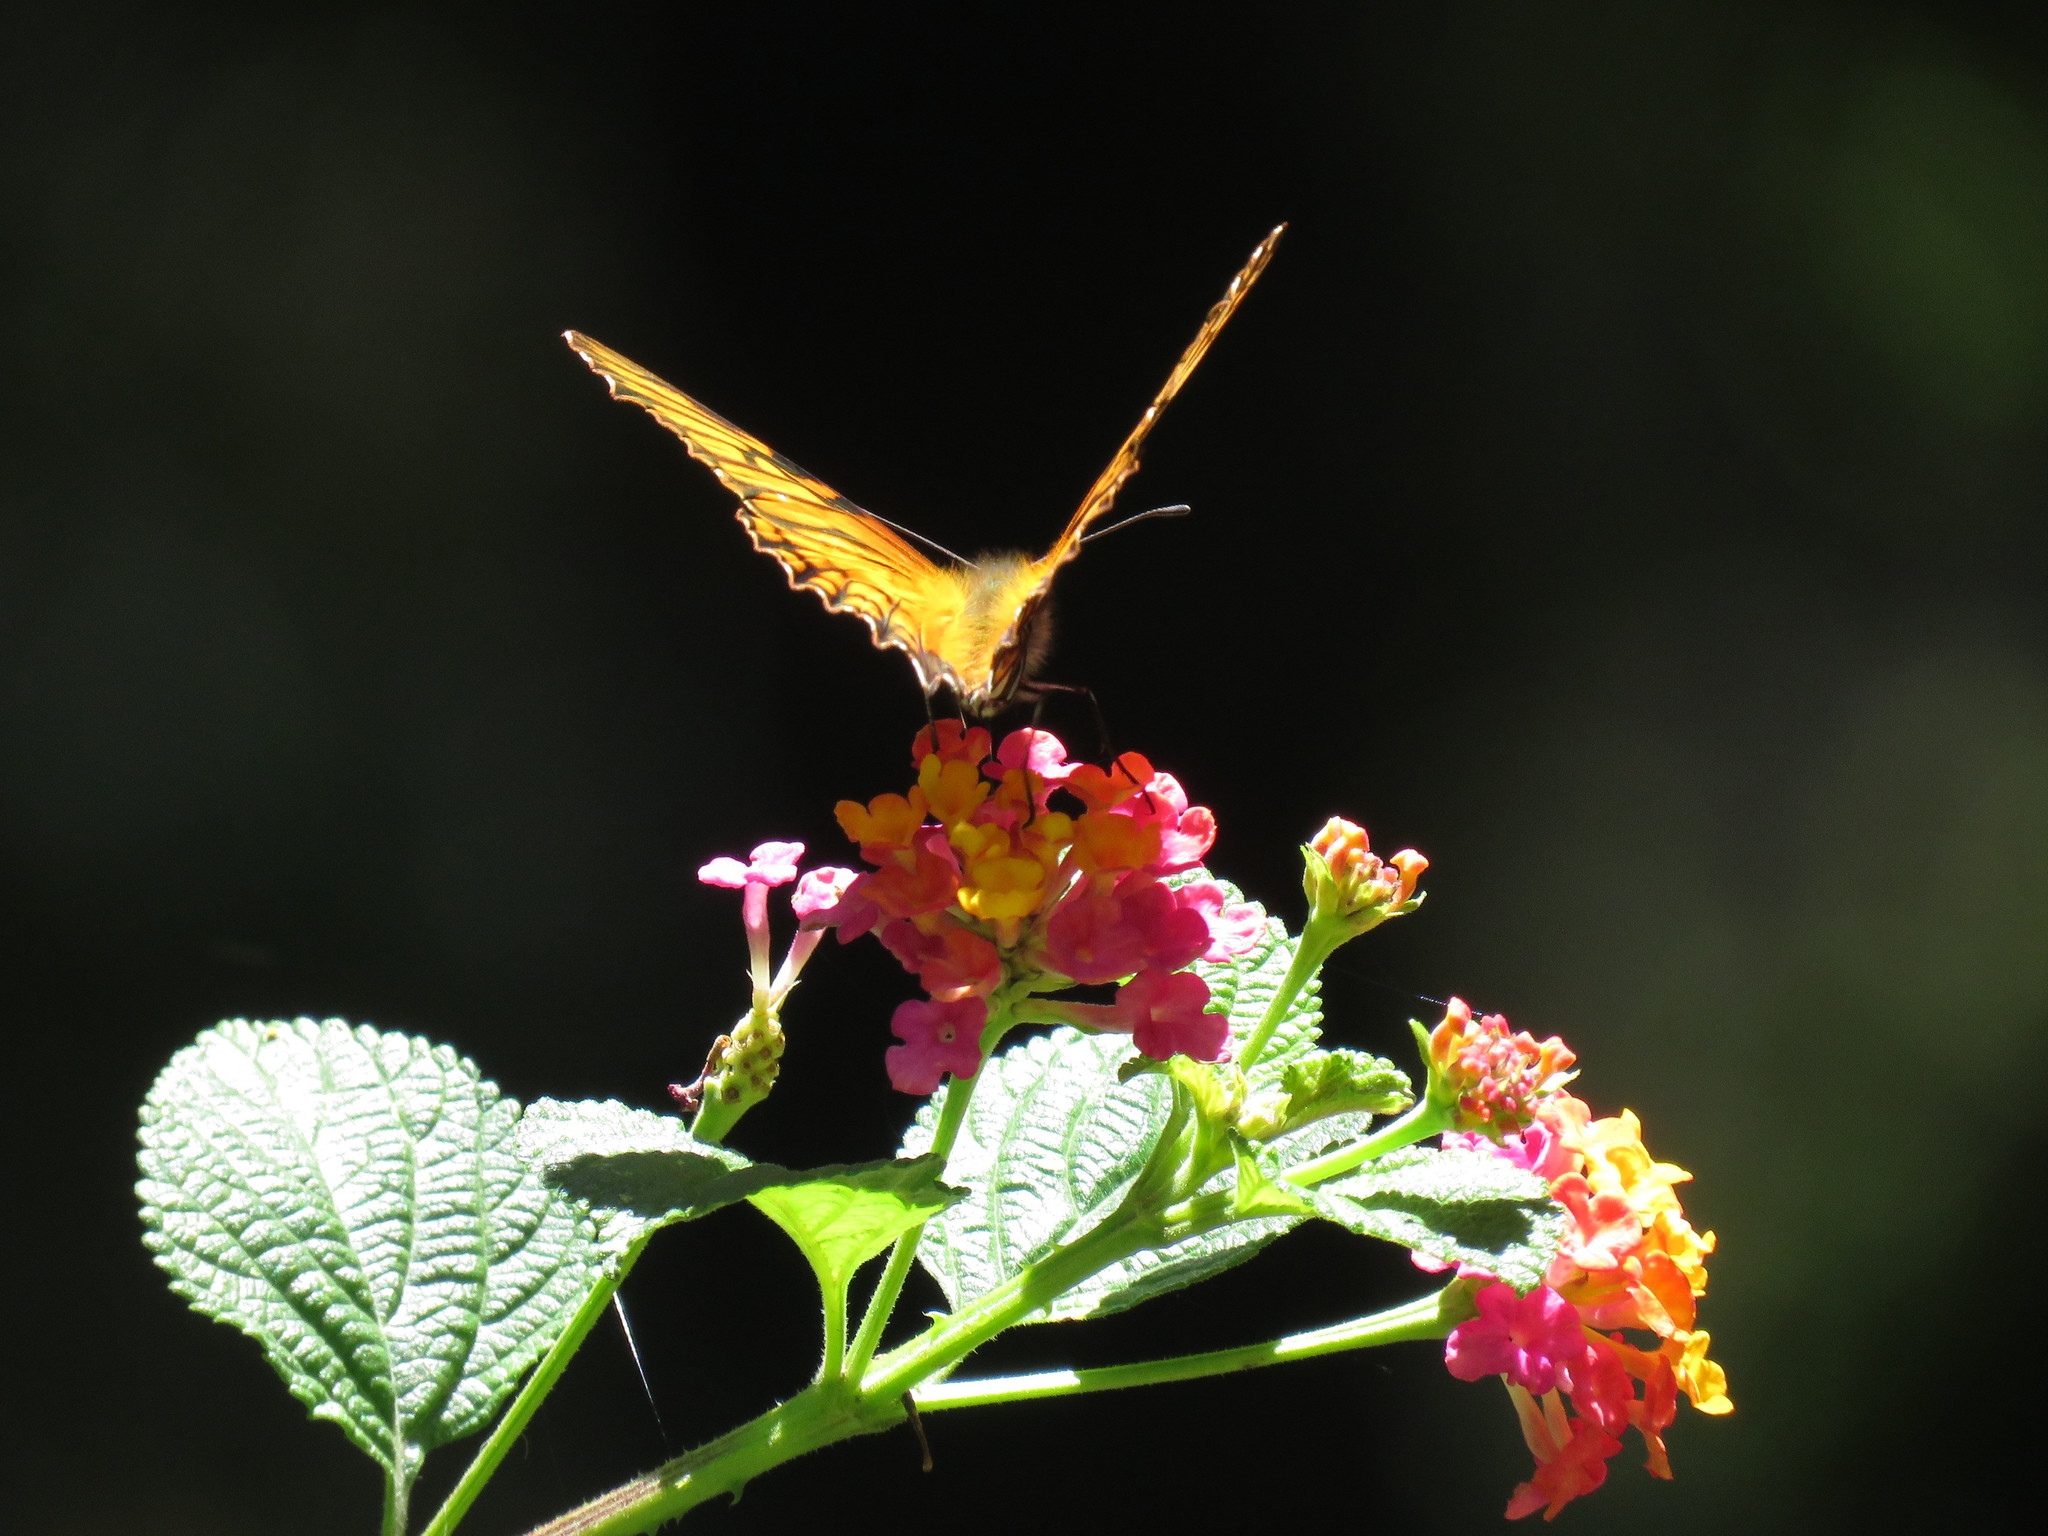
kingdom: Animalia
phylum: Arthropoda
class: Insecta
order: Lepidoptera
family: Nymphalidae
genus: Dione
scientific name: Dione glycera
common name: Andean silverspot
